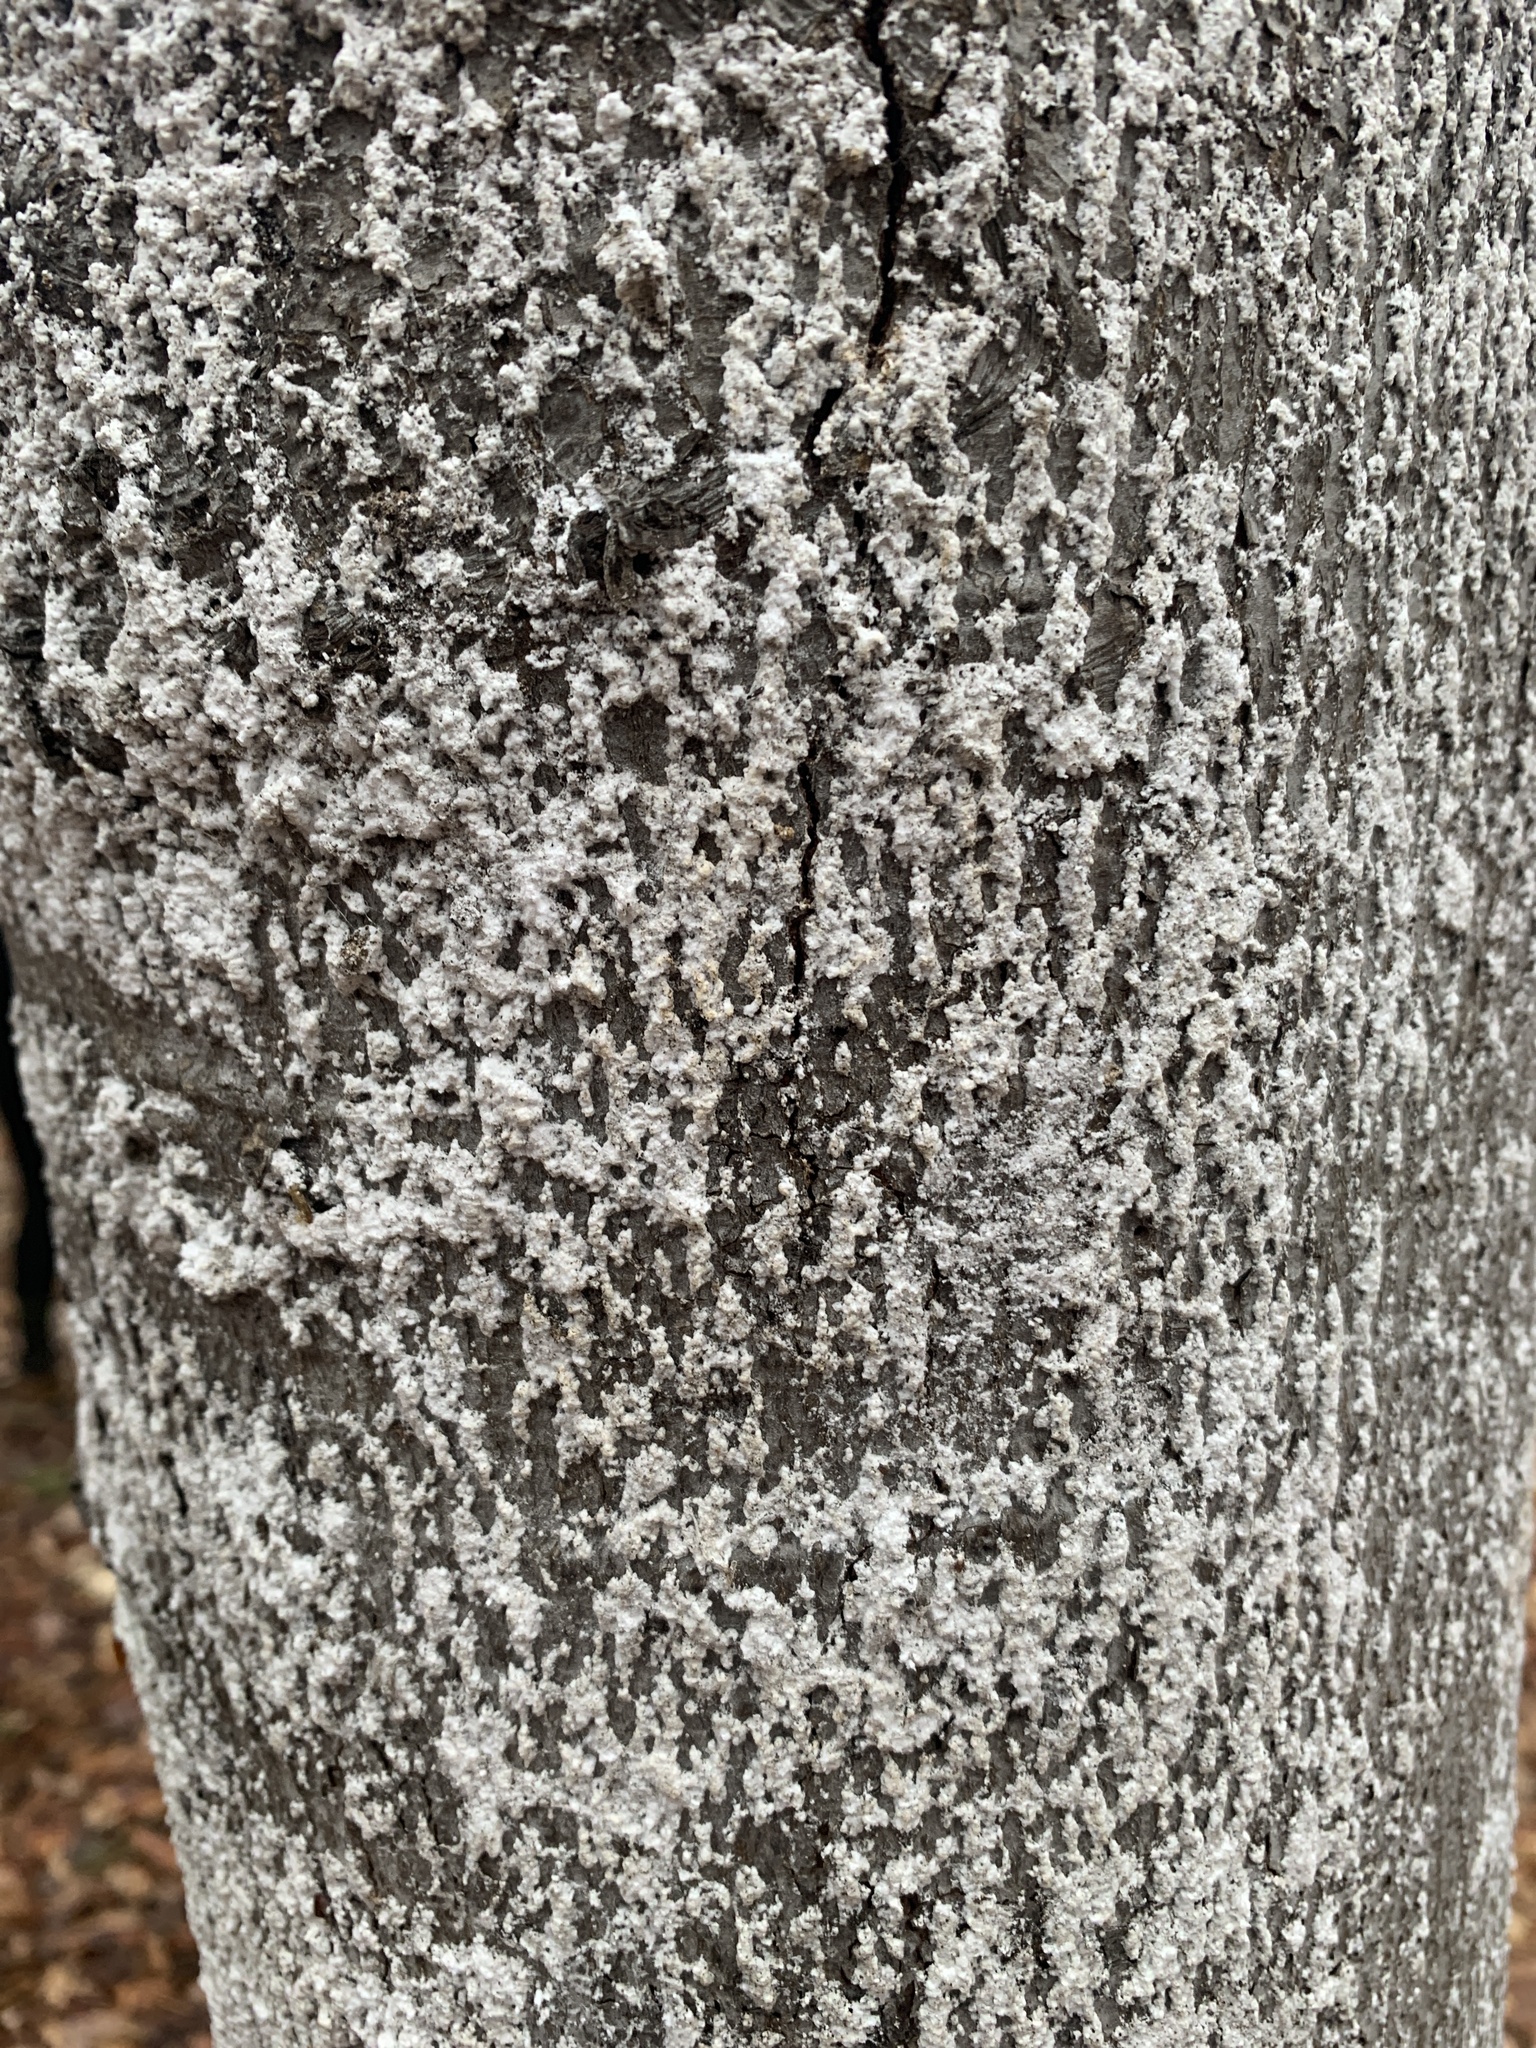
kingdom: Animalia
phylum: Arthropoda
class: Insecta
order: Hemiptera
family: Eriococcidae
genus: Cryptococcus
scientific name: Cryptococcus fagisuga
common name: Beech scale
